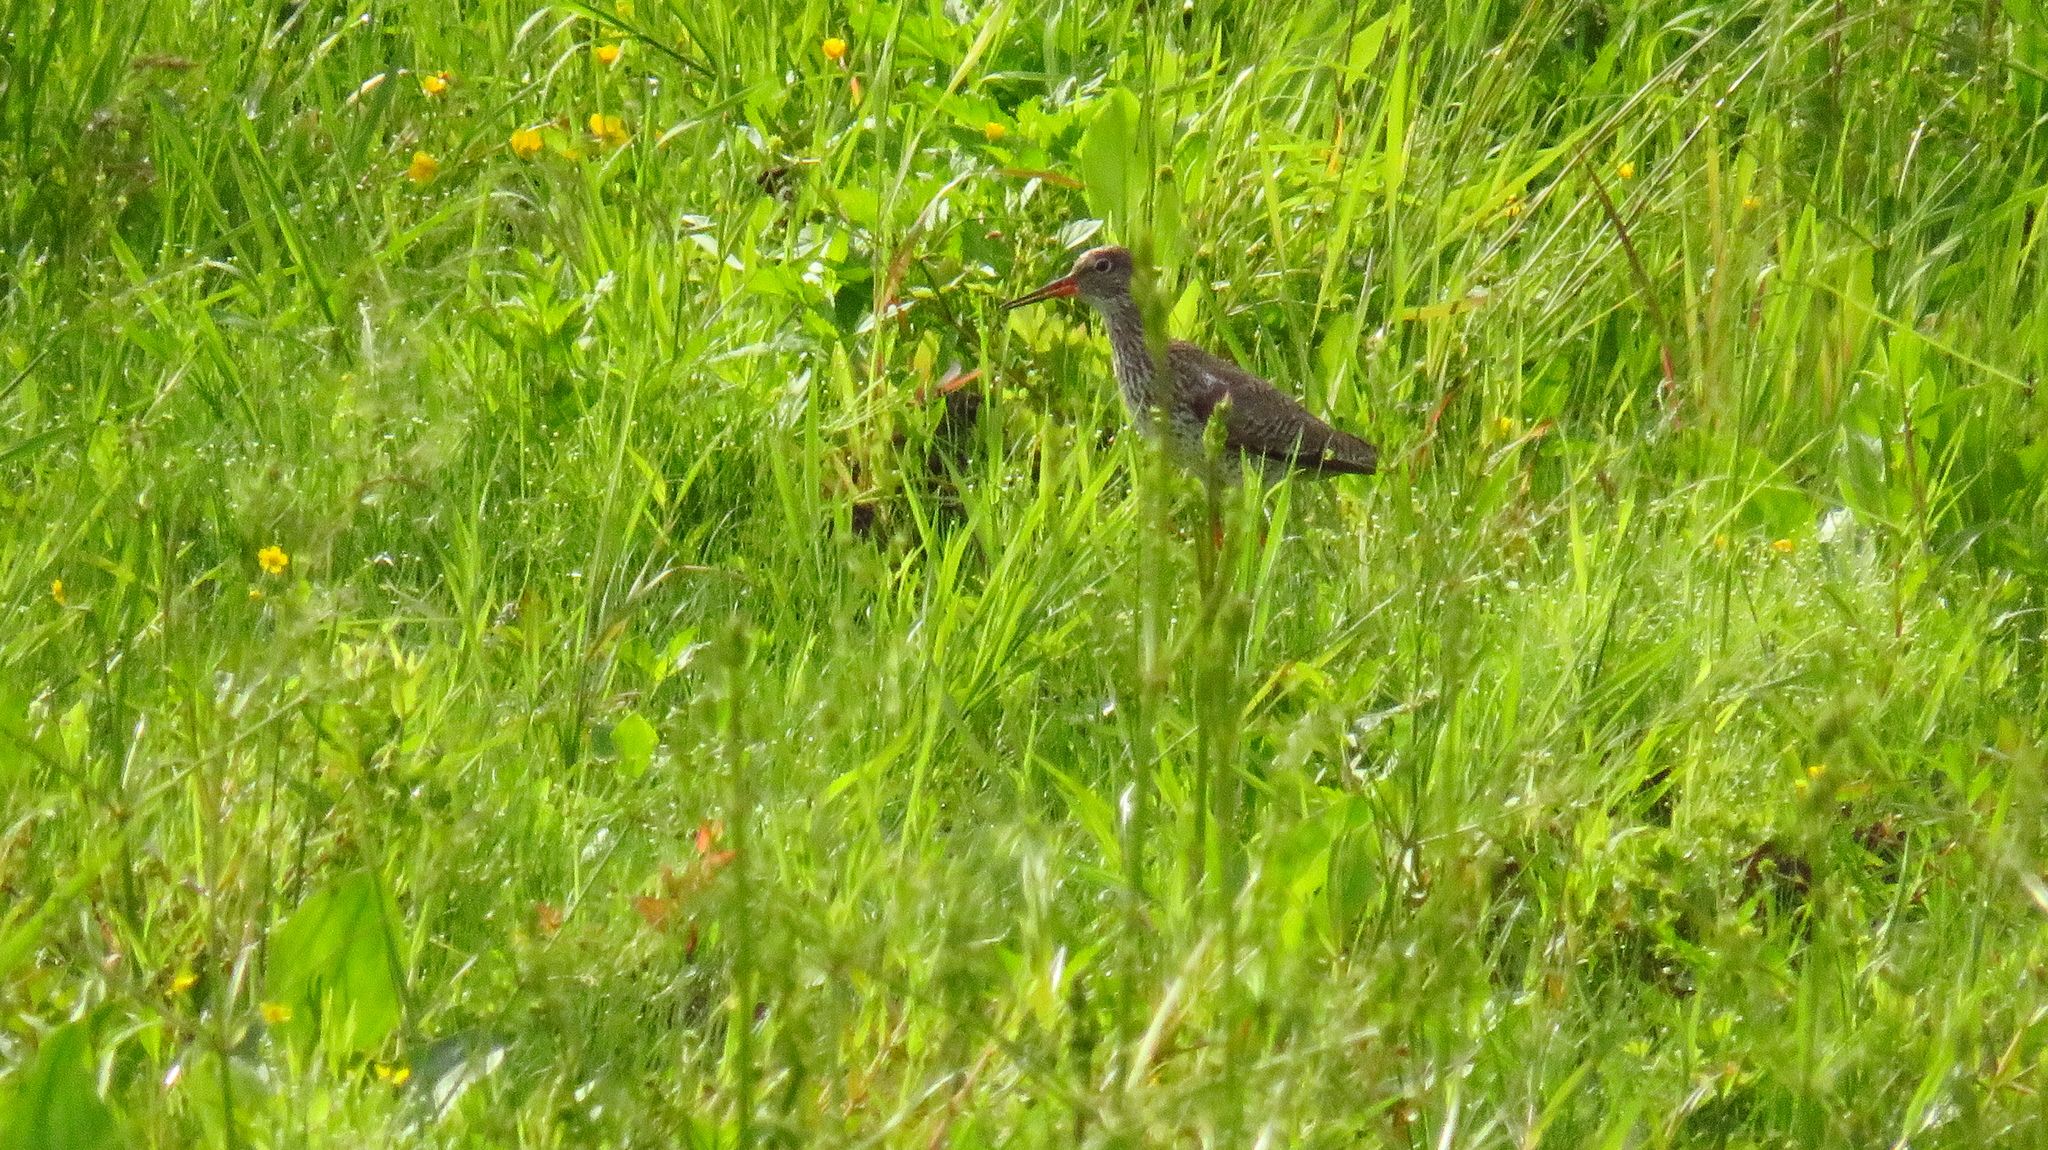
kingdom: Animalia
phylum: Chordata
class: Aves
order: Charadriiformes
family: Scolopacidae
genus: Tringa
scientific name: Tringa totanus
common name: Common redshank
